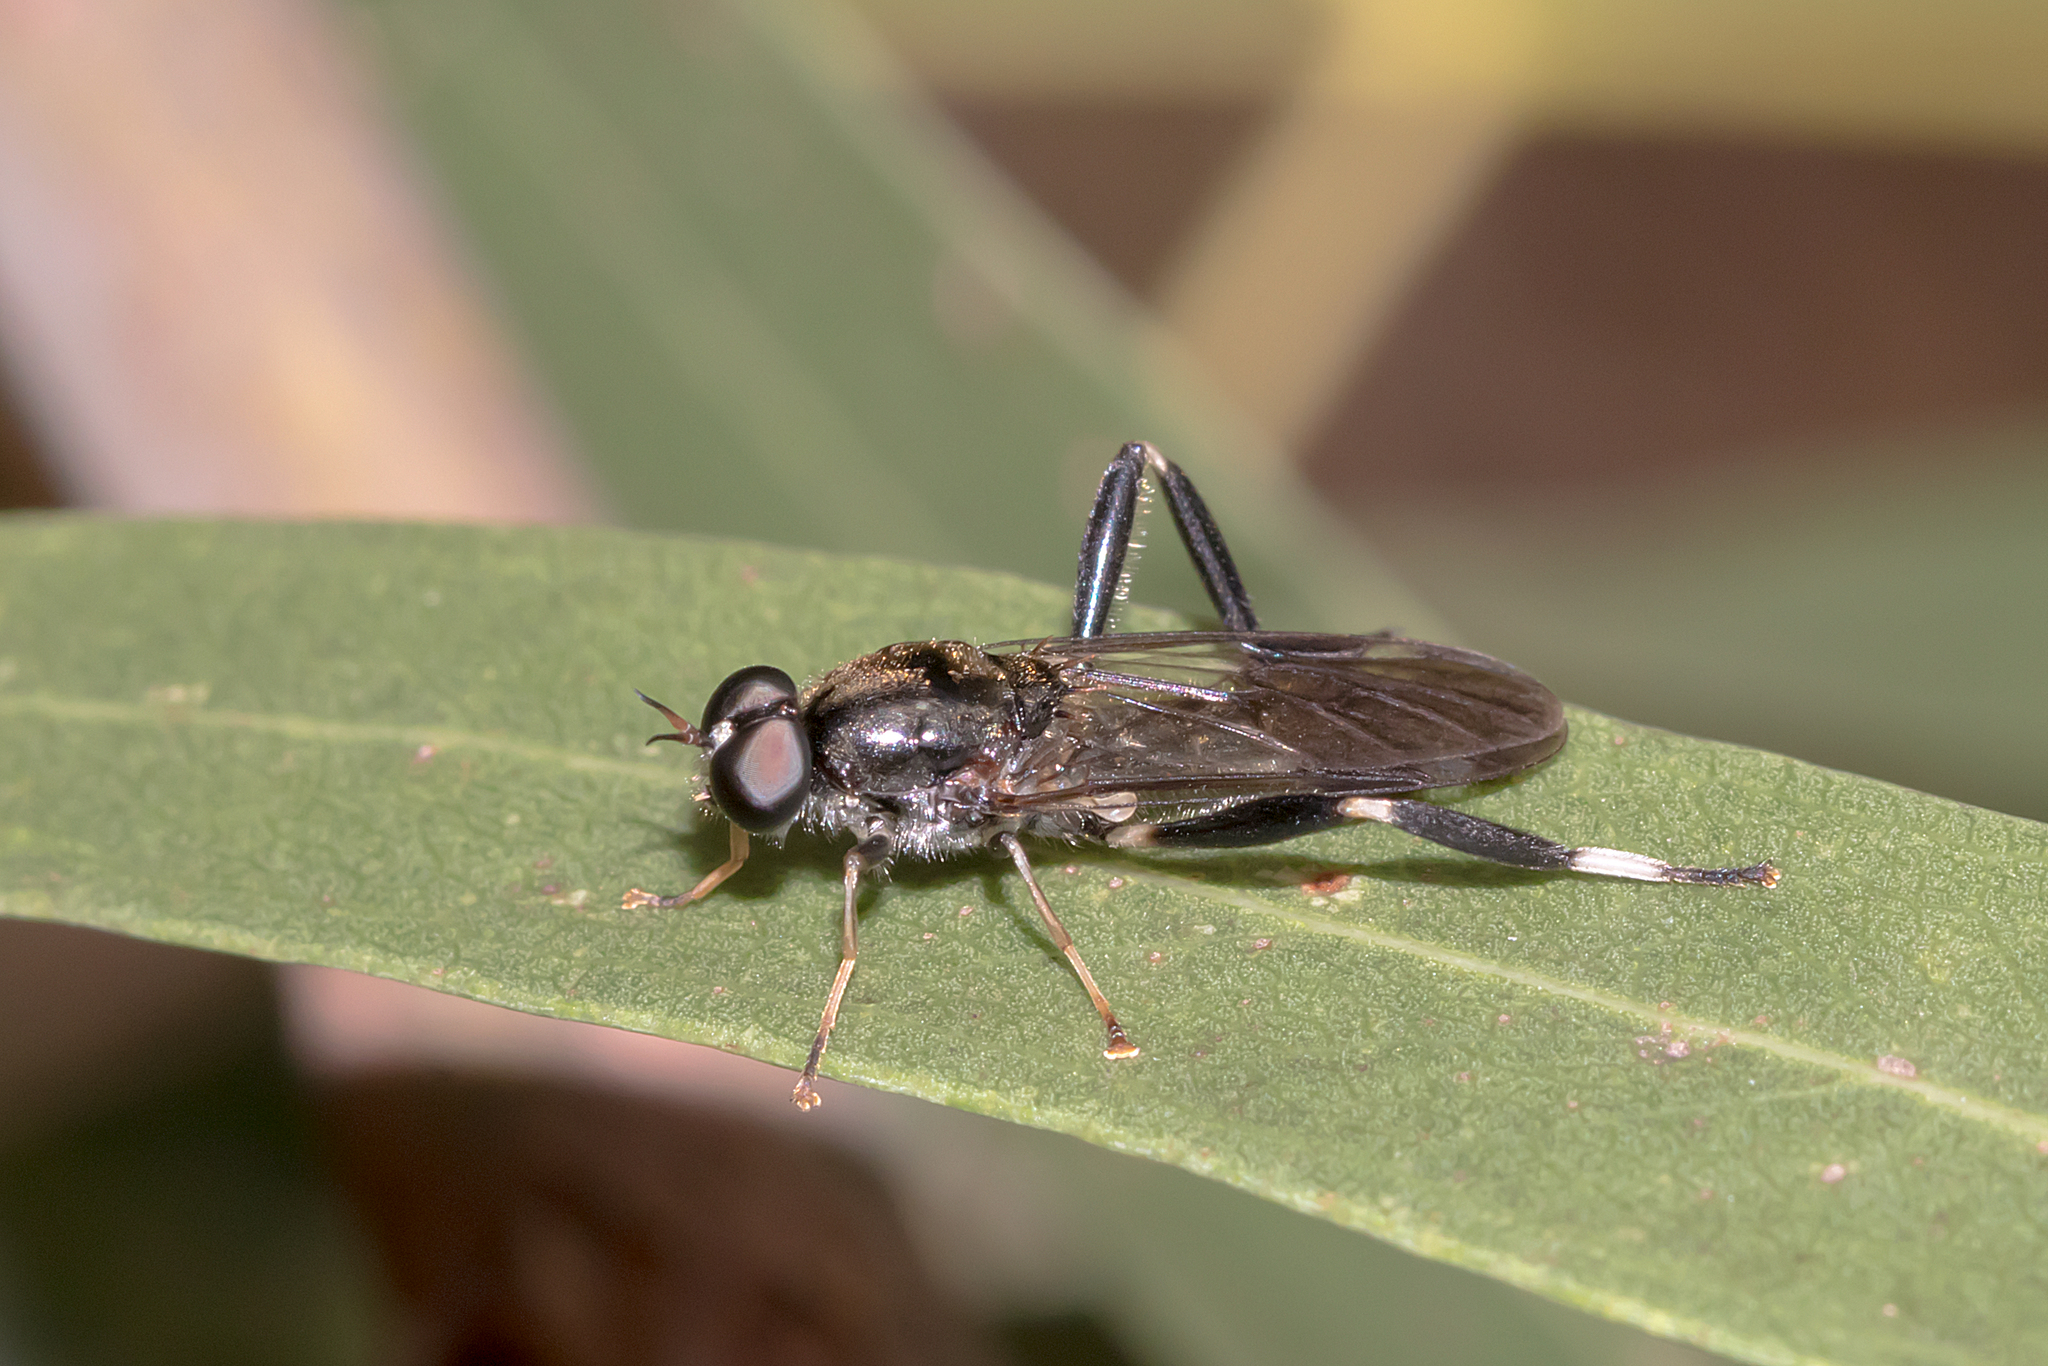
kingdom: Animalia
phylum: Arthropoda
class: Insecta
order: Diptera
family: Stratiomyidae
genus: Exaireta
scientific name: Exaireta spinigera
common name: Blue soldier fly
